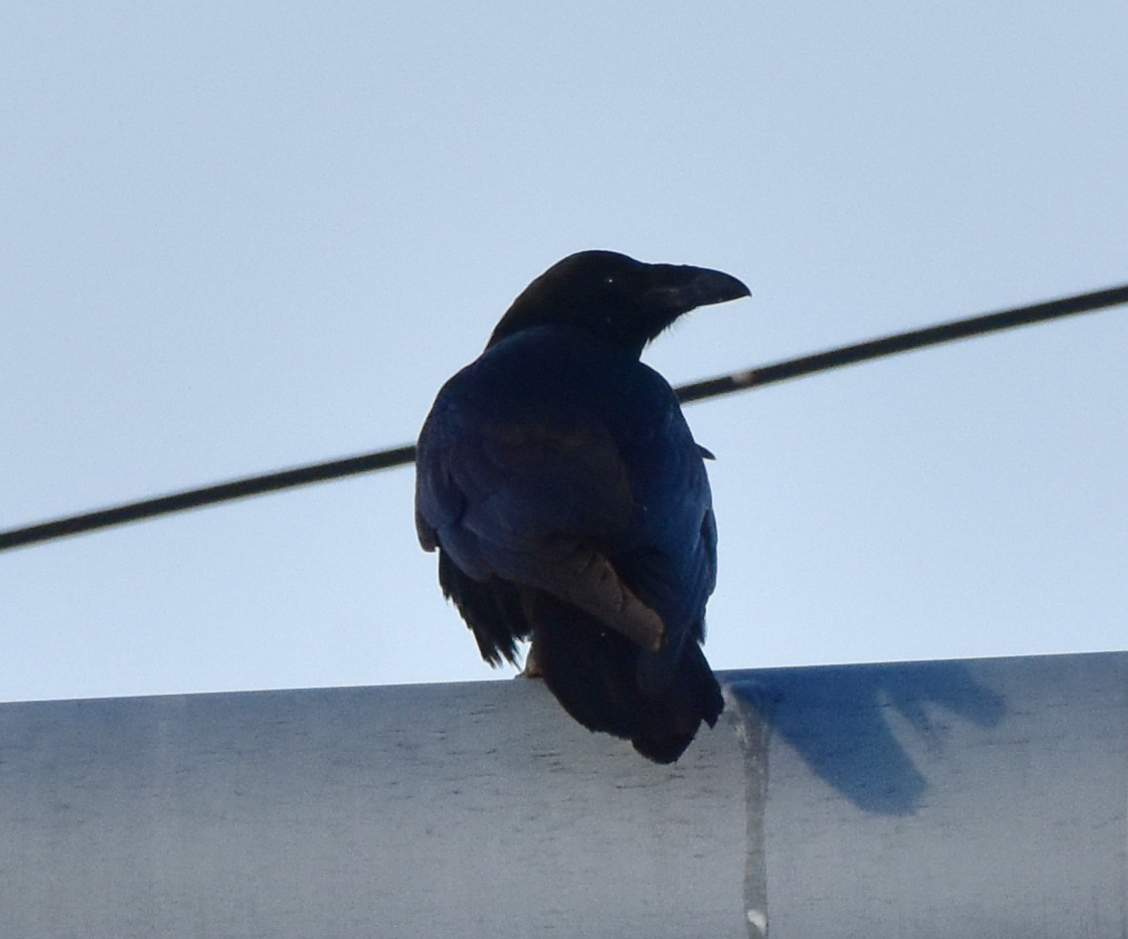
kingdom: Animalia
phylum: Chordata
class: Aves
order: Passeriformes
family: Corvidae
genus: Corvus
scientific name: Corvus corax
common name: Common raven
